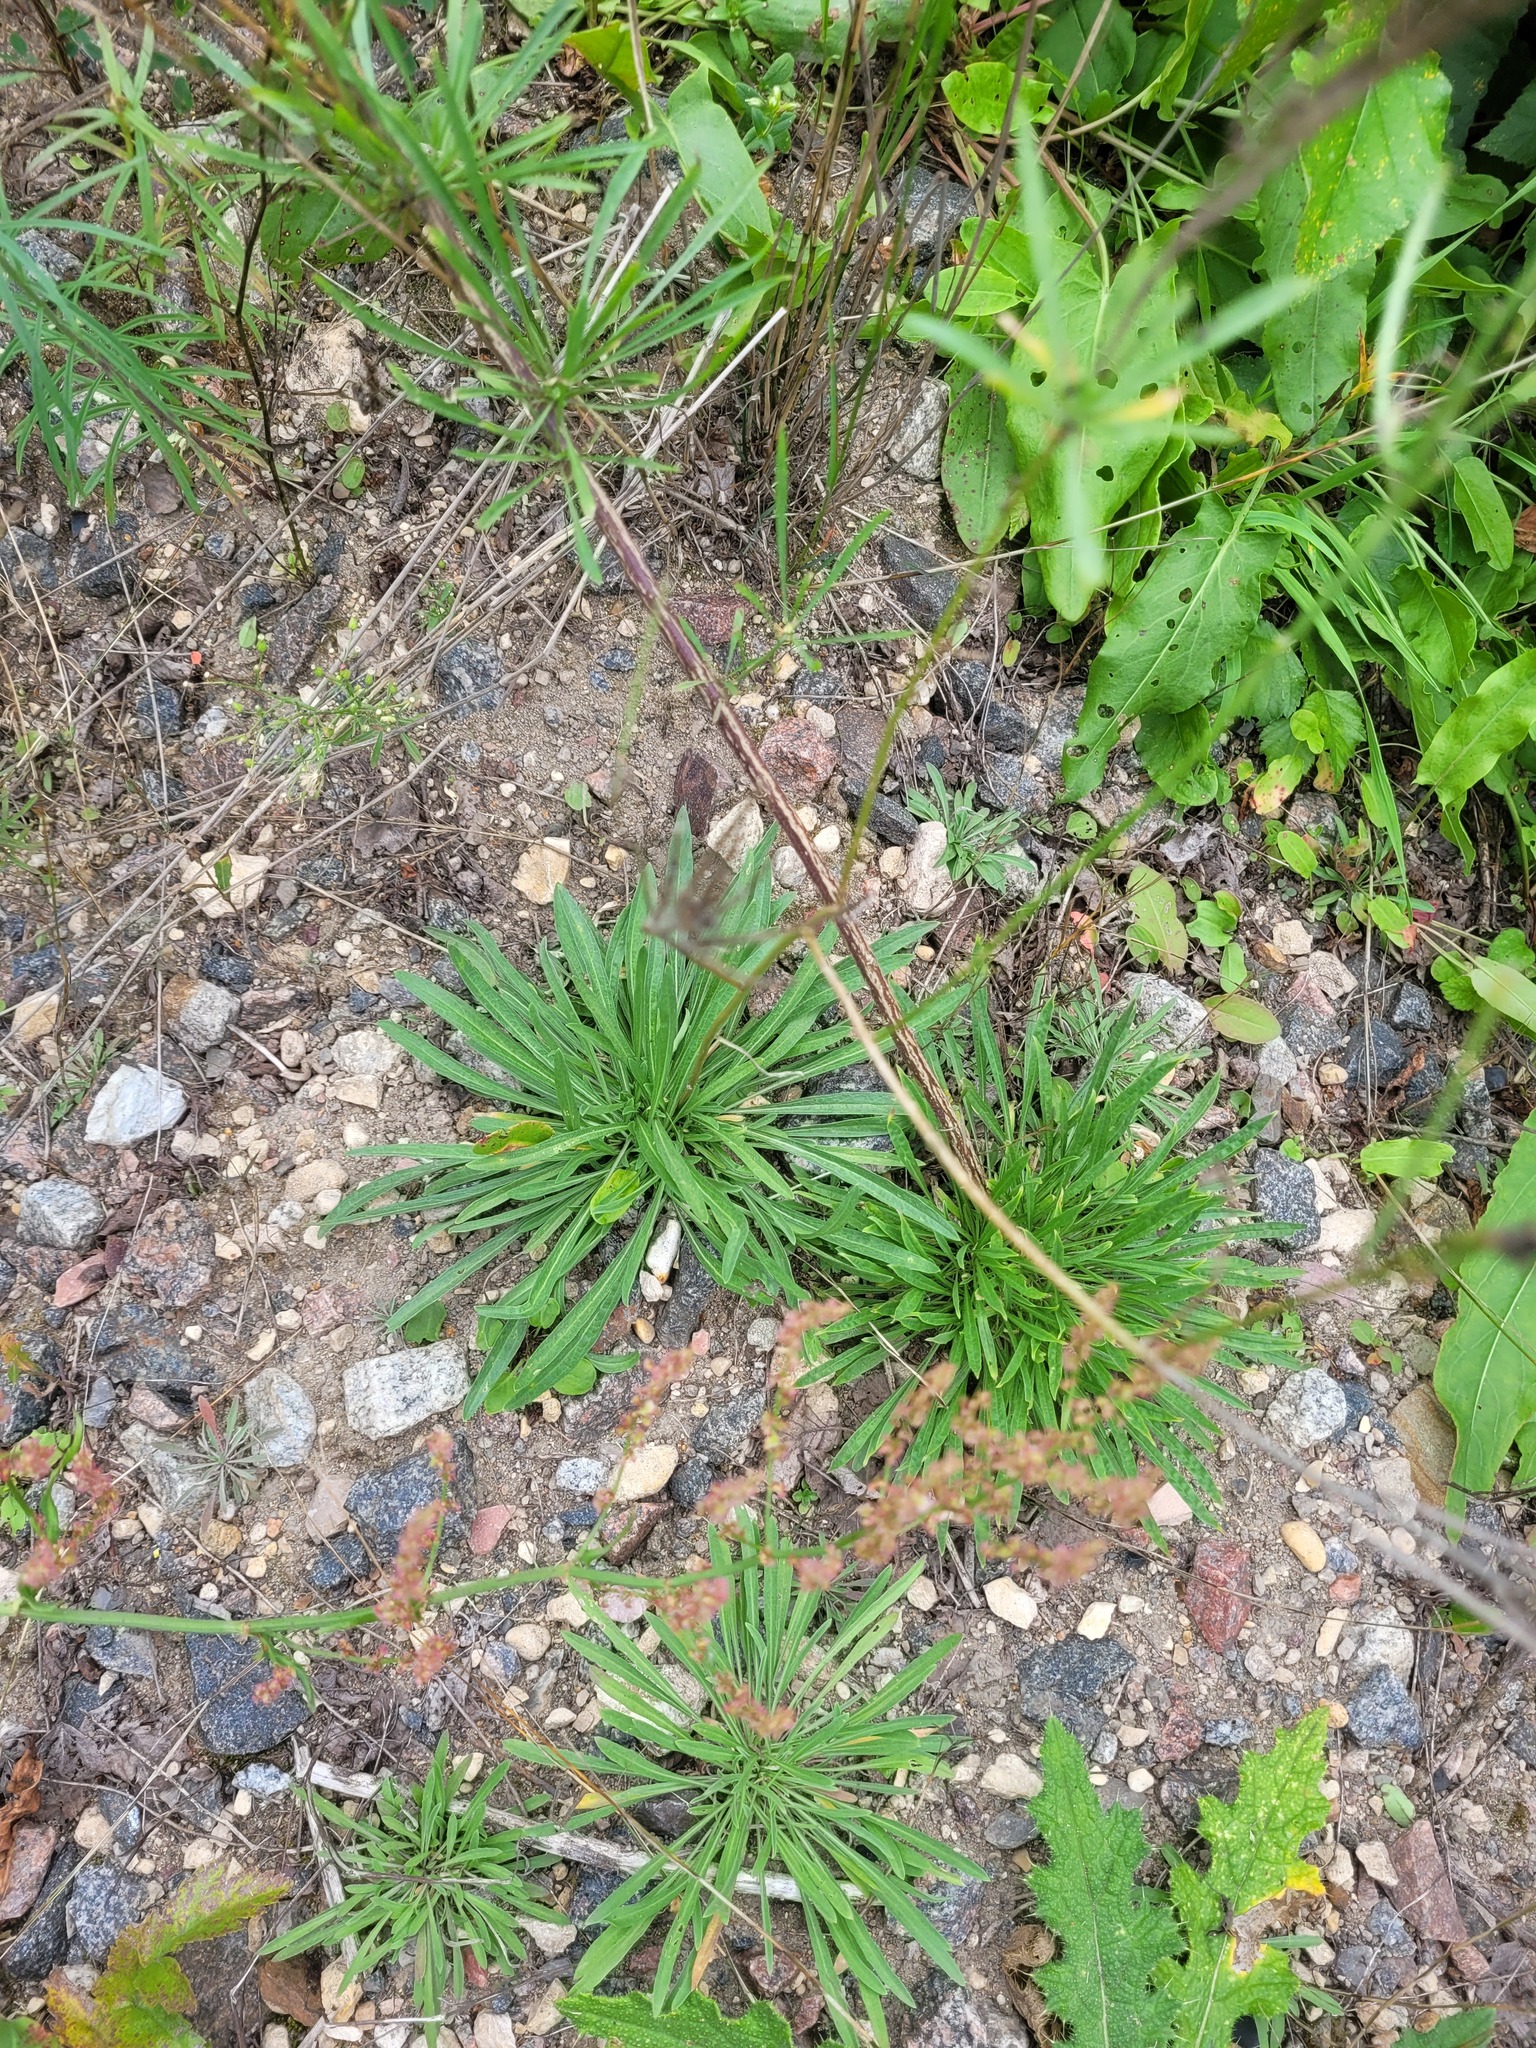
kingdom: Plantae
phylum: Tracheophyta
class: Magnoliopsida
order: Brassicales
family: Brassicaceae
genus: Erysimum
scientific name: Erysimum diffusum
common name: Diffuse wallflower
